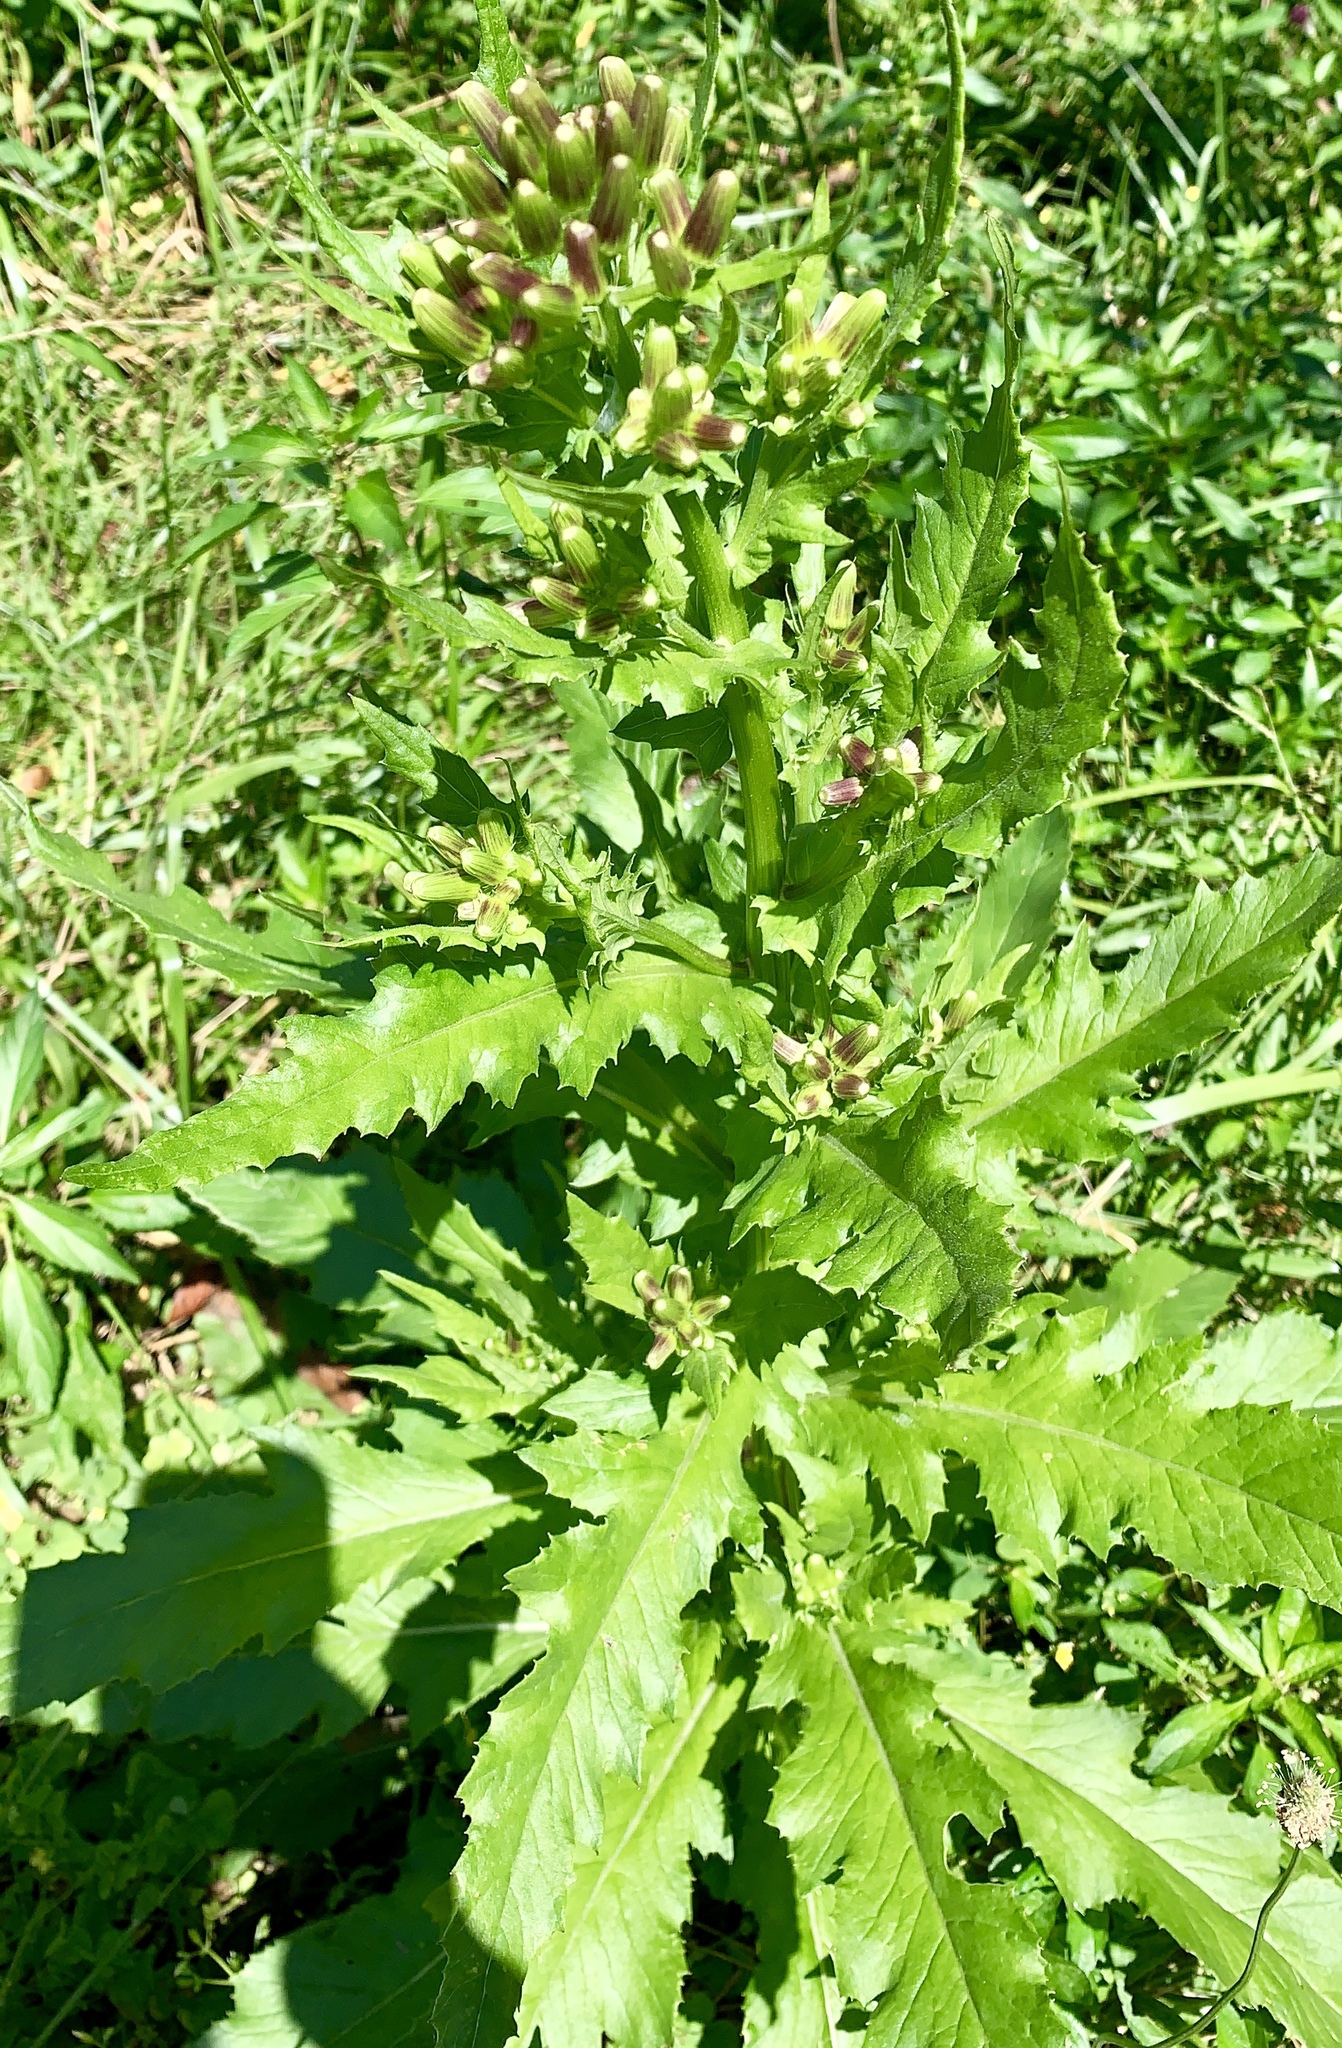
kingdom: Plantae
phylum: Tracheophyta
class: Magnoliopsida
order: Asterales
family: Asteraceae
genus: Erechtites
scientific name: Erechtites hieraciifolius
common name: American burnweed
